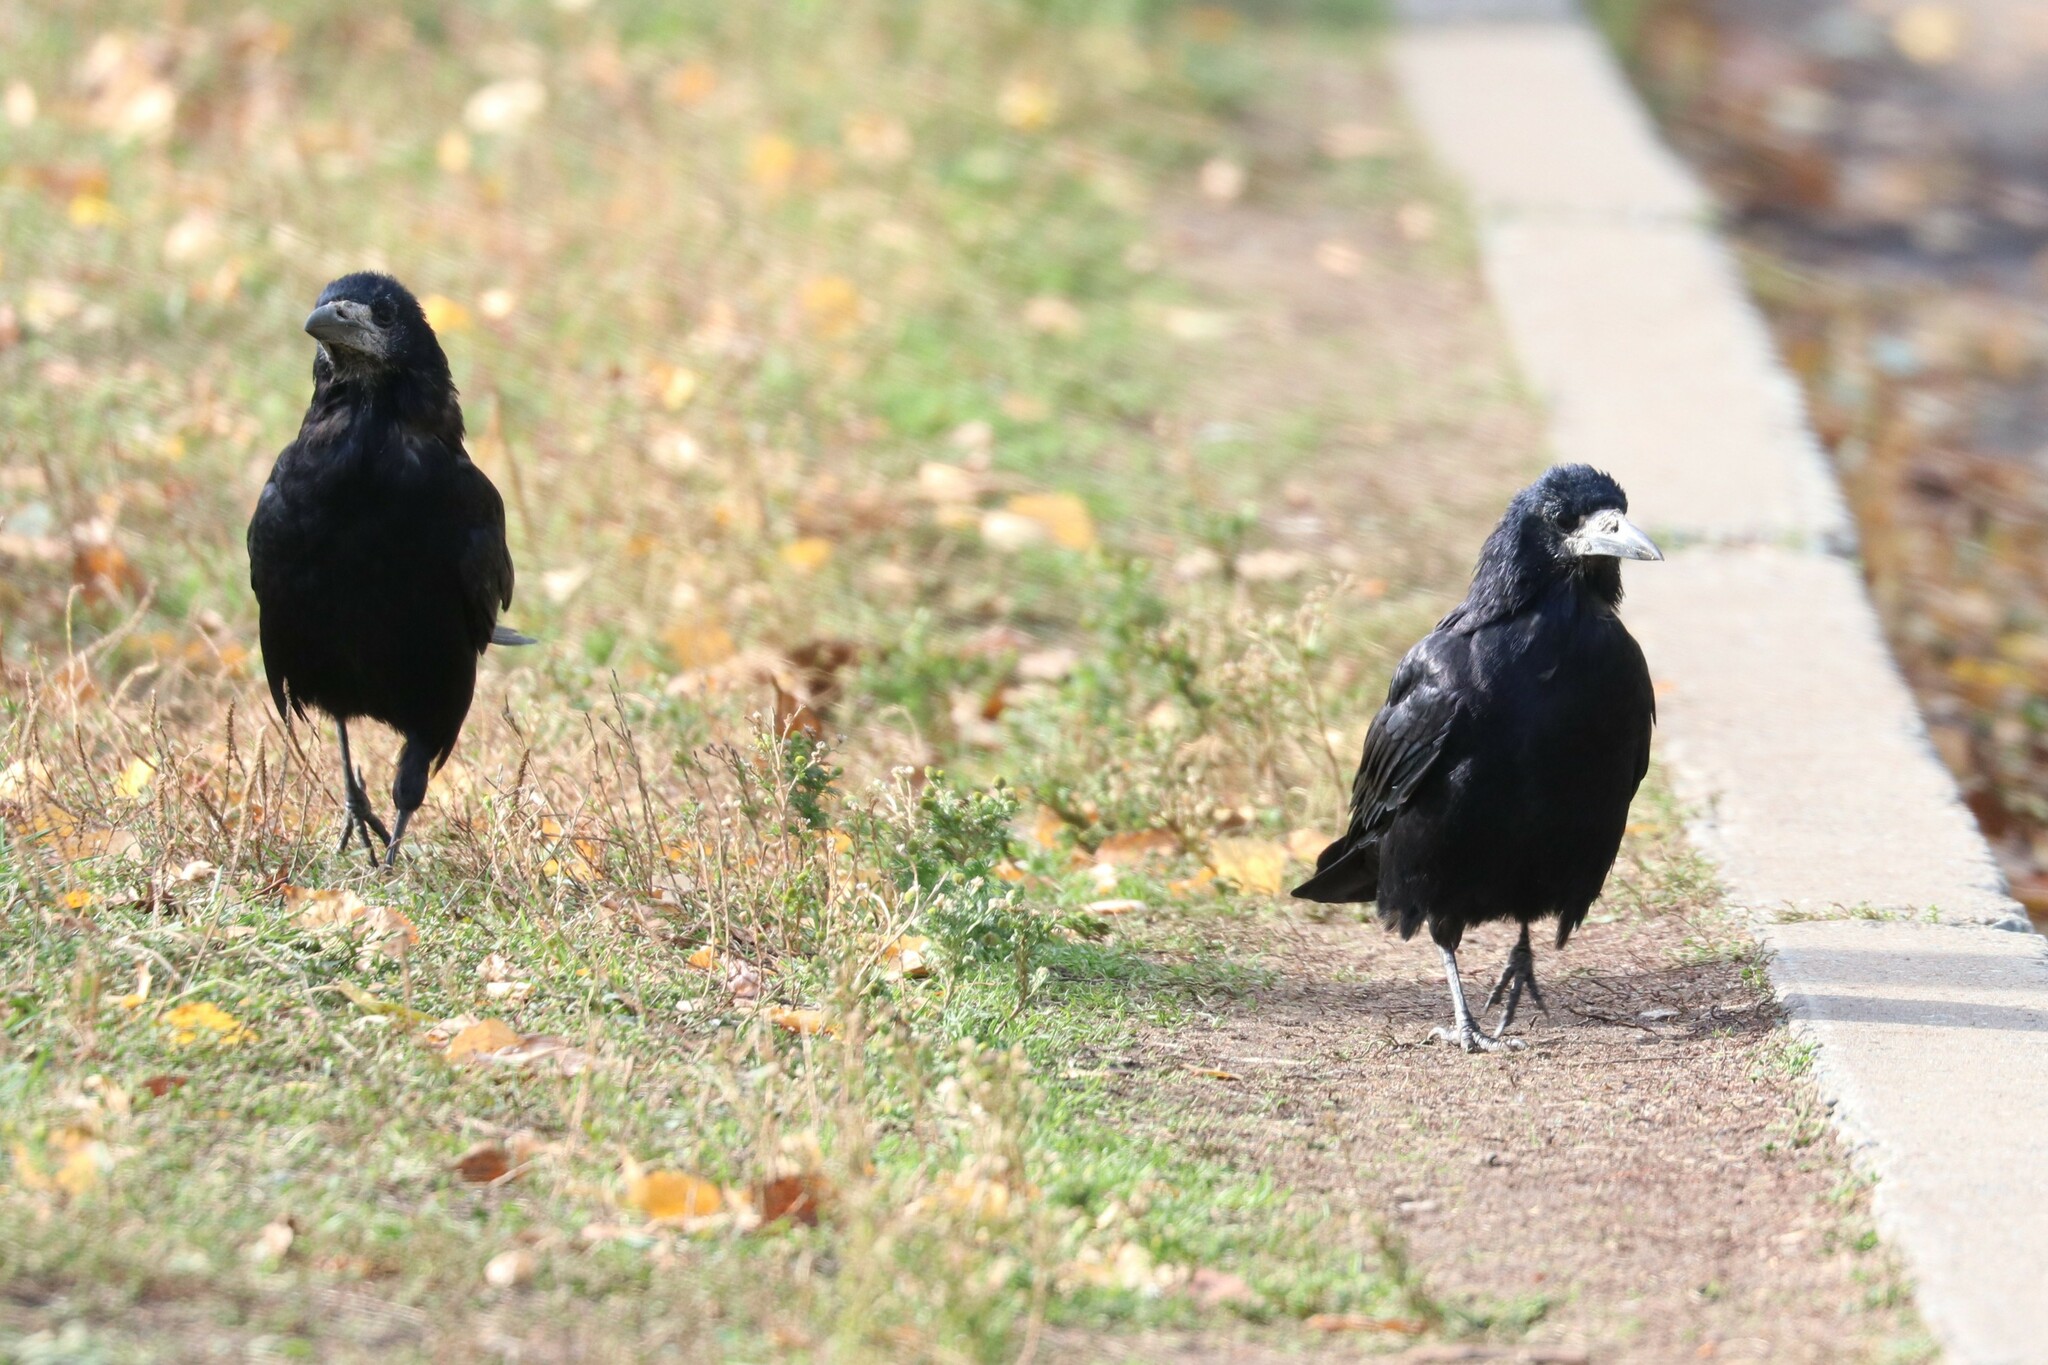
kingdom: Animalia
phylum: Chordata
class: Aves
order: Passeriformes
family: Corvidae
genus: Corvus
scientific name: Corvus frugilegus
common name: Rook
